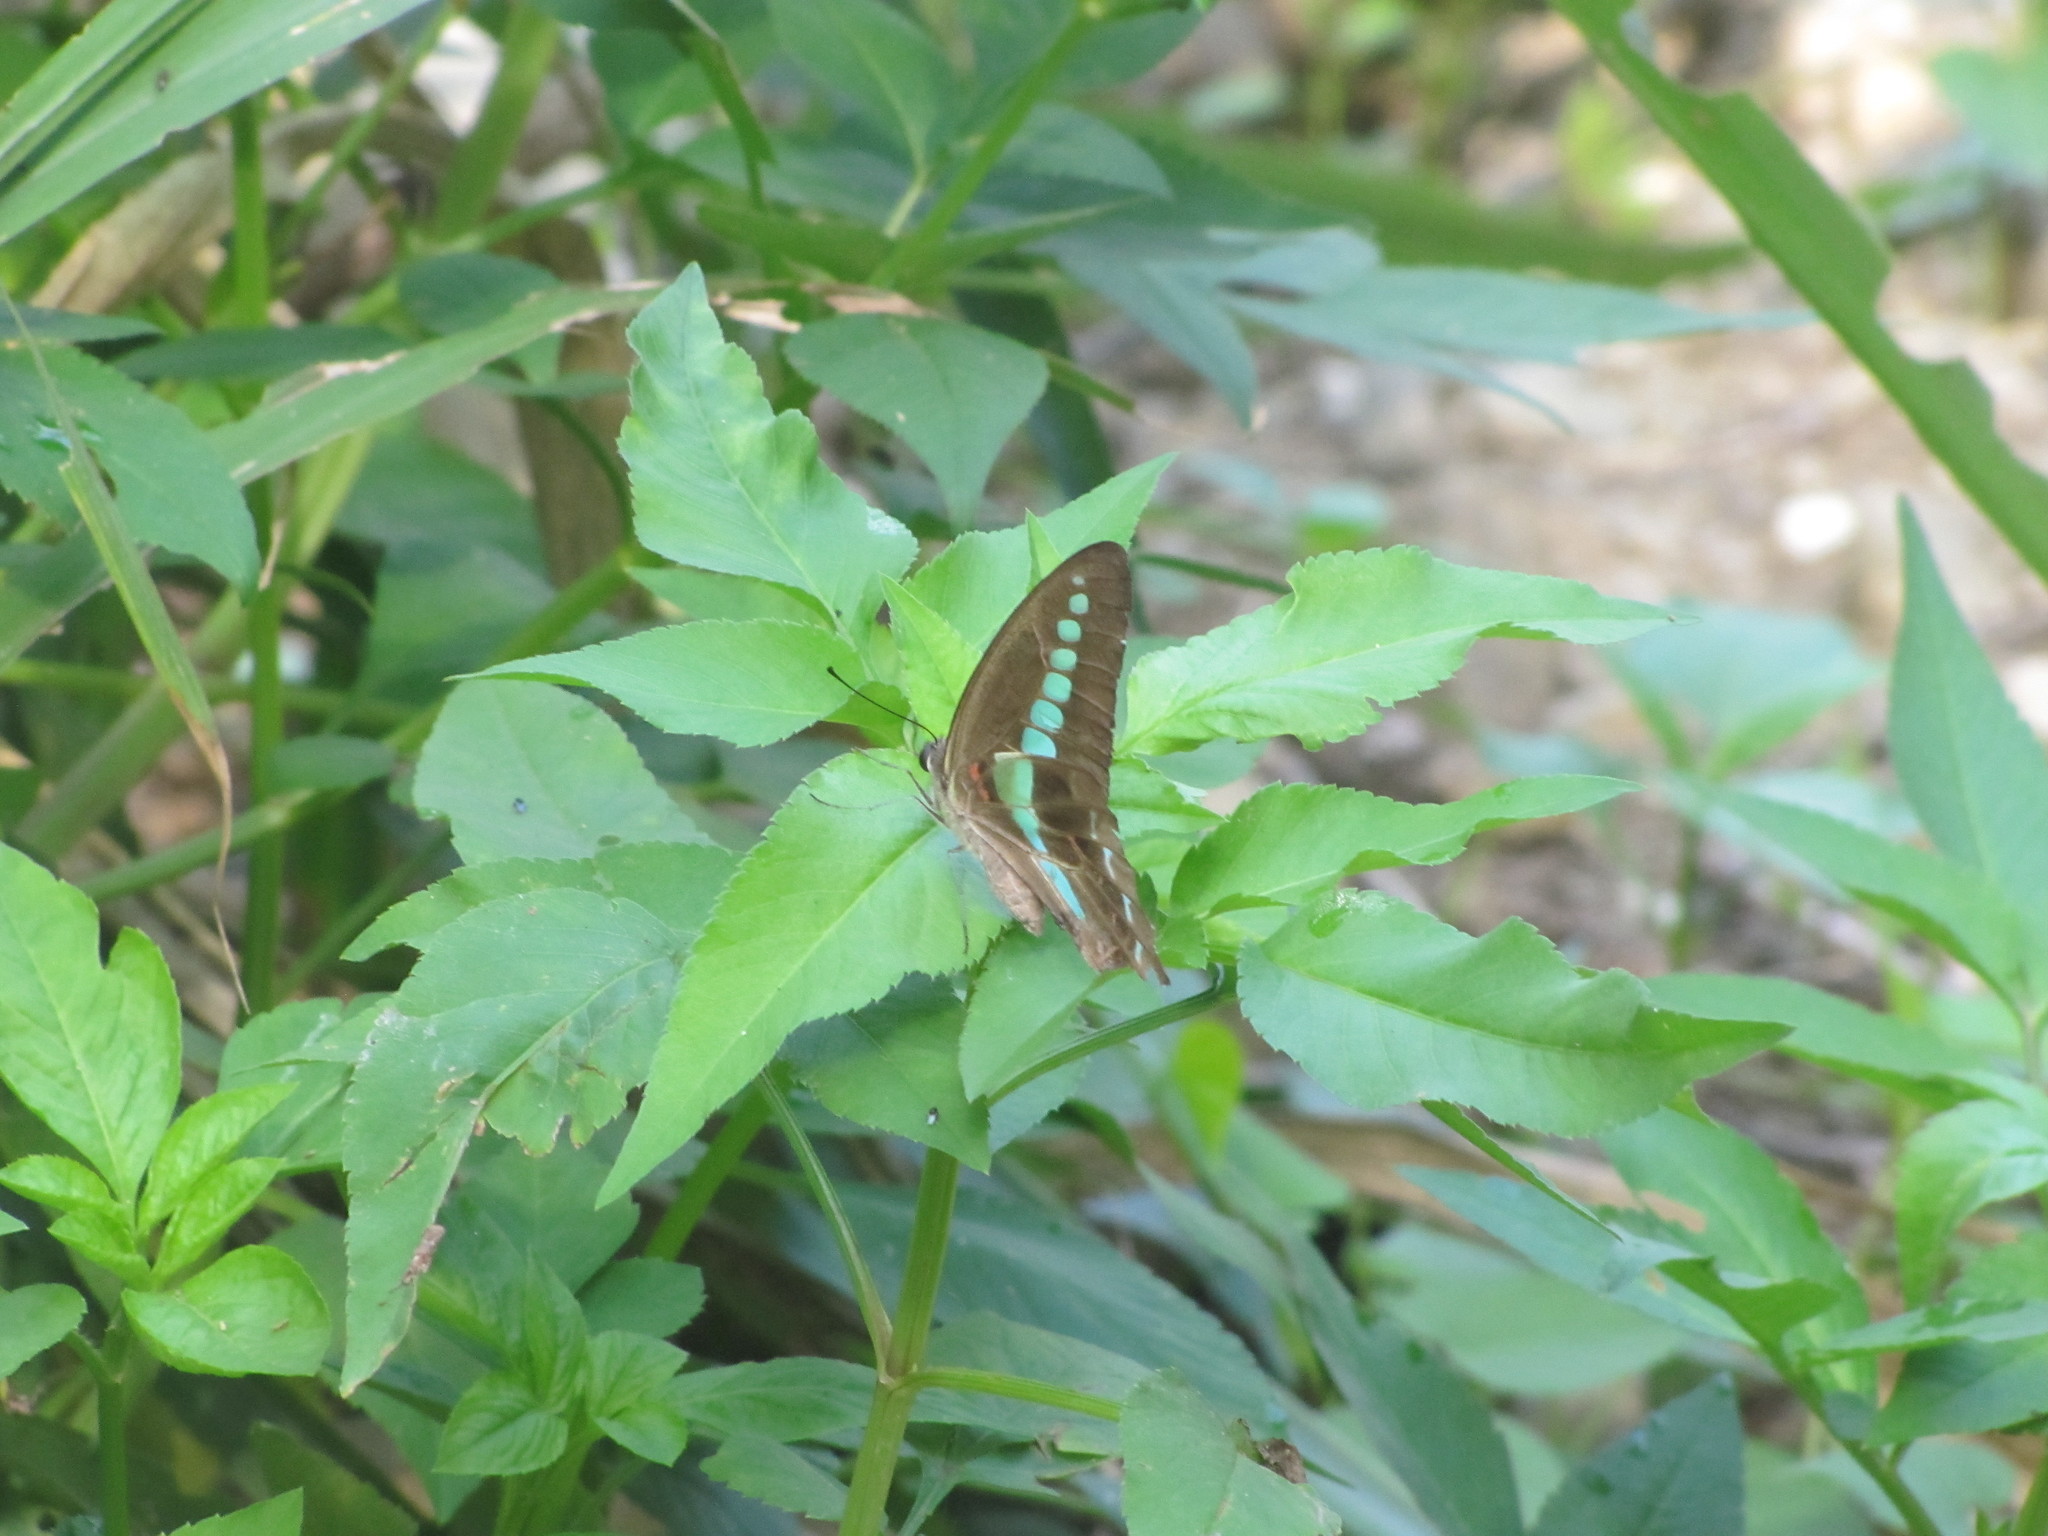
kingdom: Fungi
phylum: Ascomycota
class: Sordariomycetes
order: Microascales
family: Microascaceae
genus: Graphium
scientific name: Graphium sarpedon
